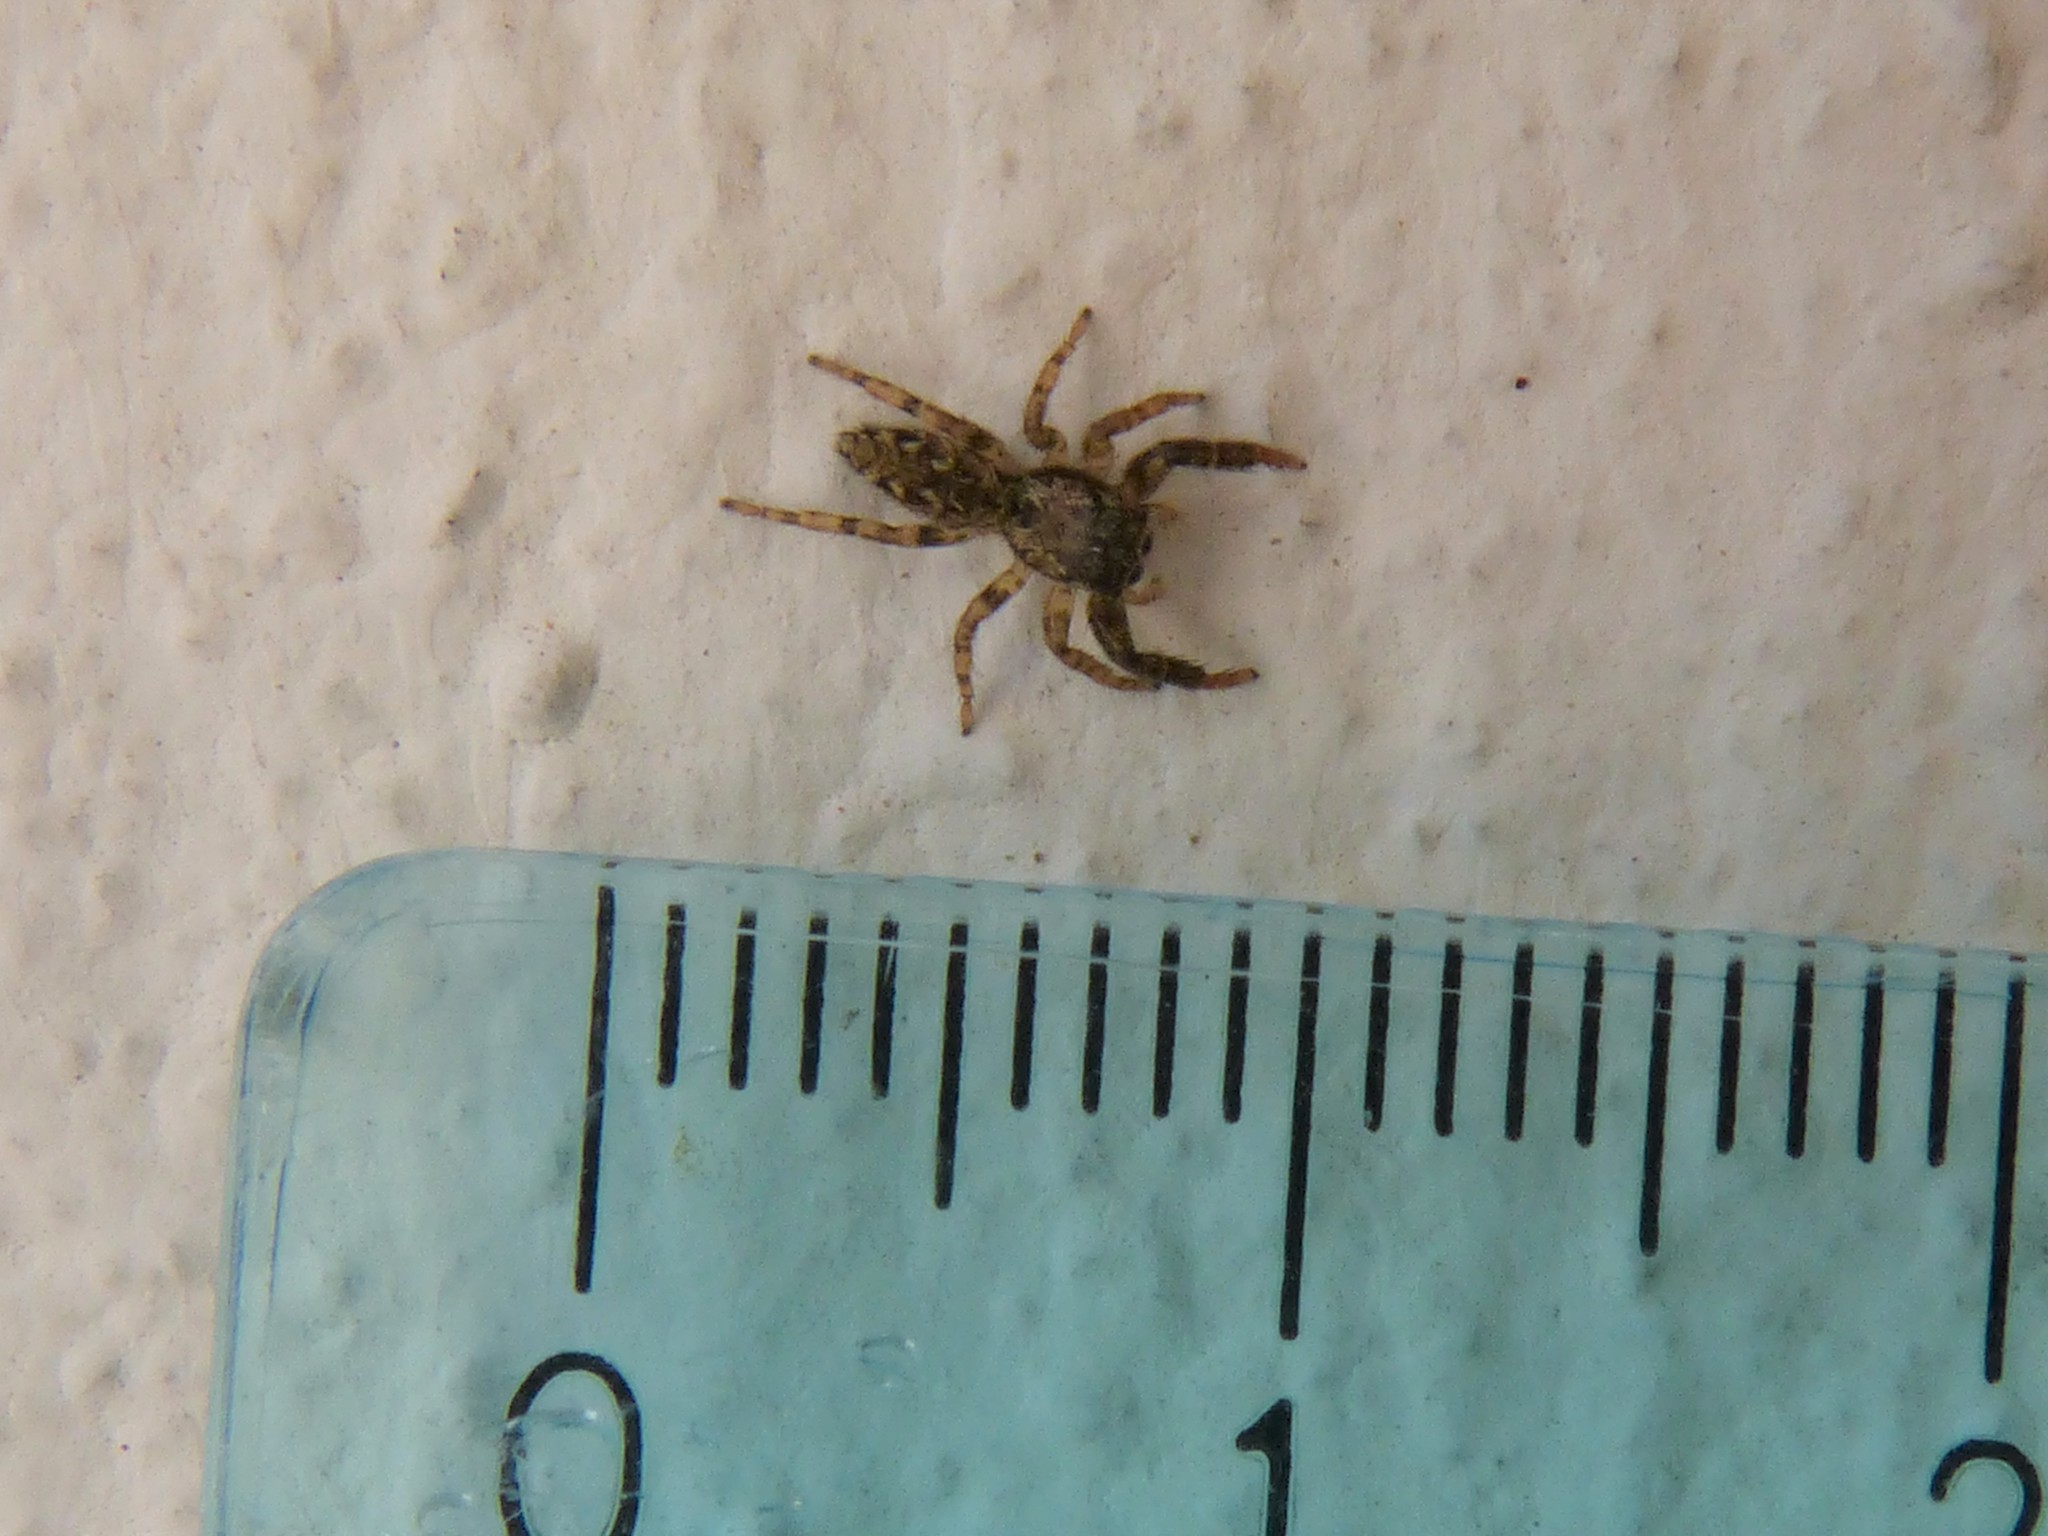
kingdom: Animalia
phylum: Arthropoda
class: Arachnida
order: Araneae
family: Salticidae
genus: Marpissa
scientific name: Marpissa muscosa
